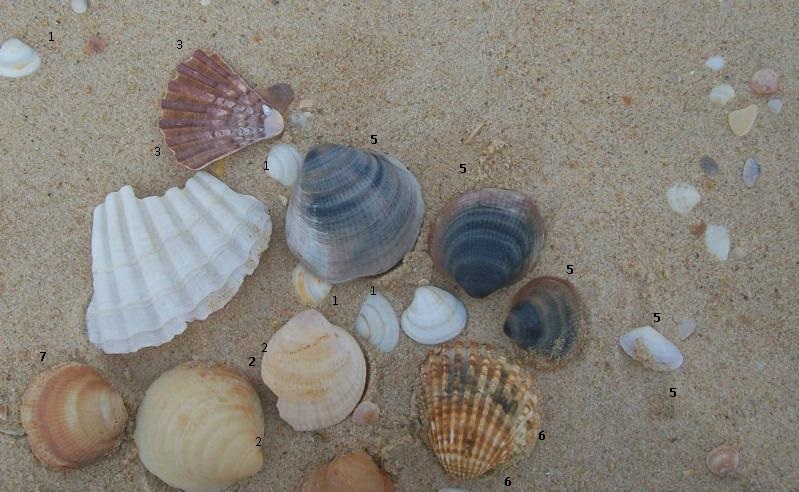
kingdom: Animalia
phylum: Mollusca
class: Bivalvia
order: Pectinida
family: Pectinidae
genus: Pecten
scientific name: Pecten maximus
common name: Great scallop
